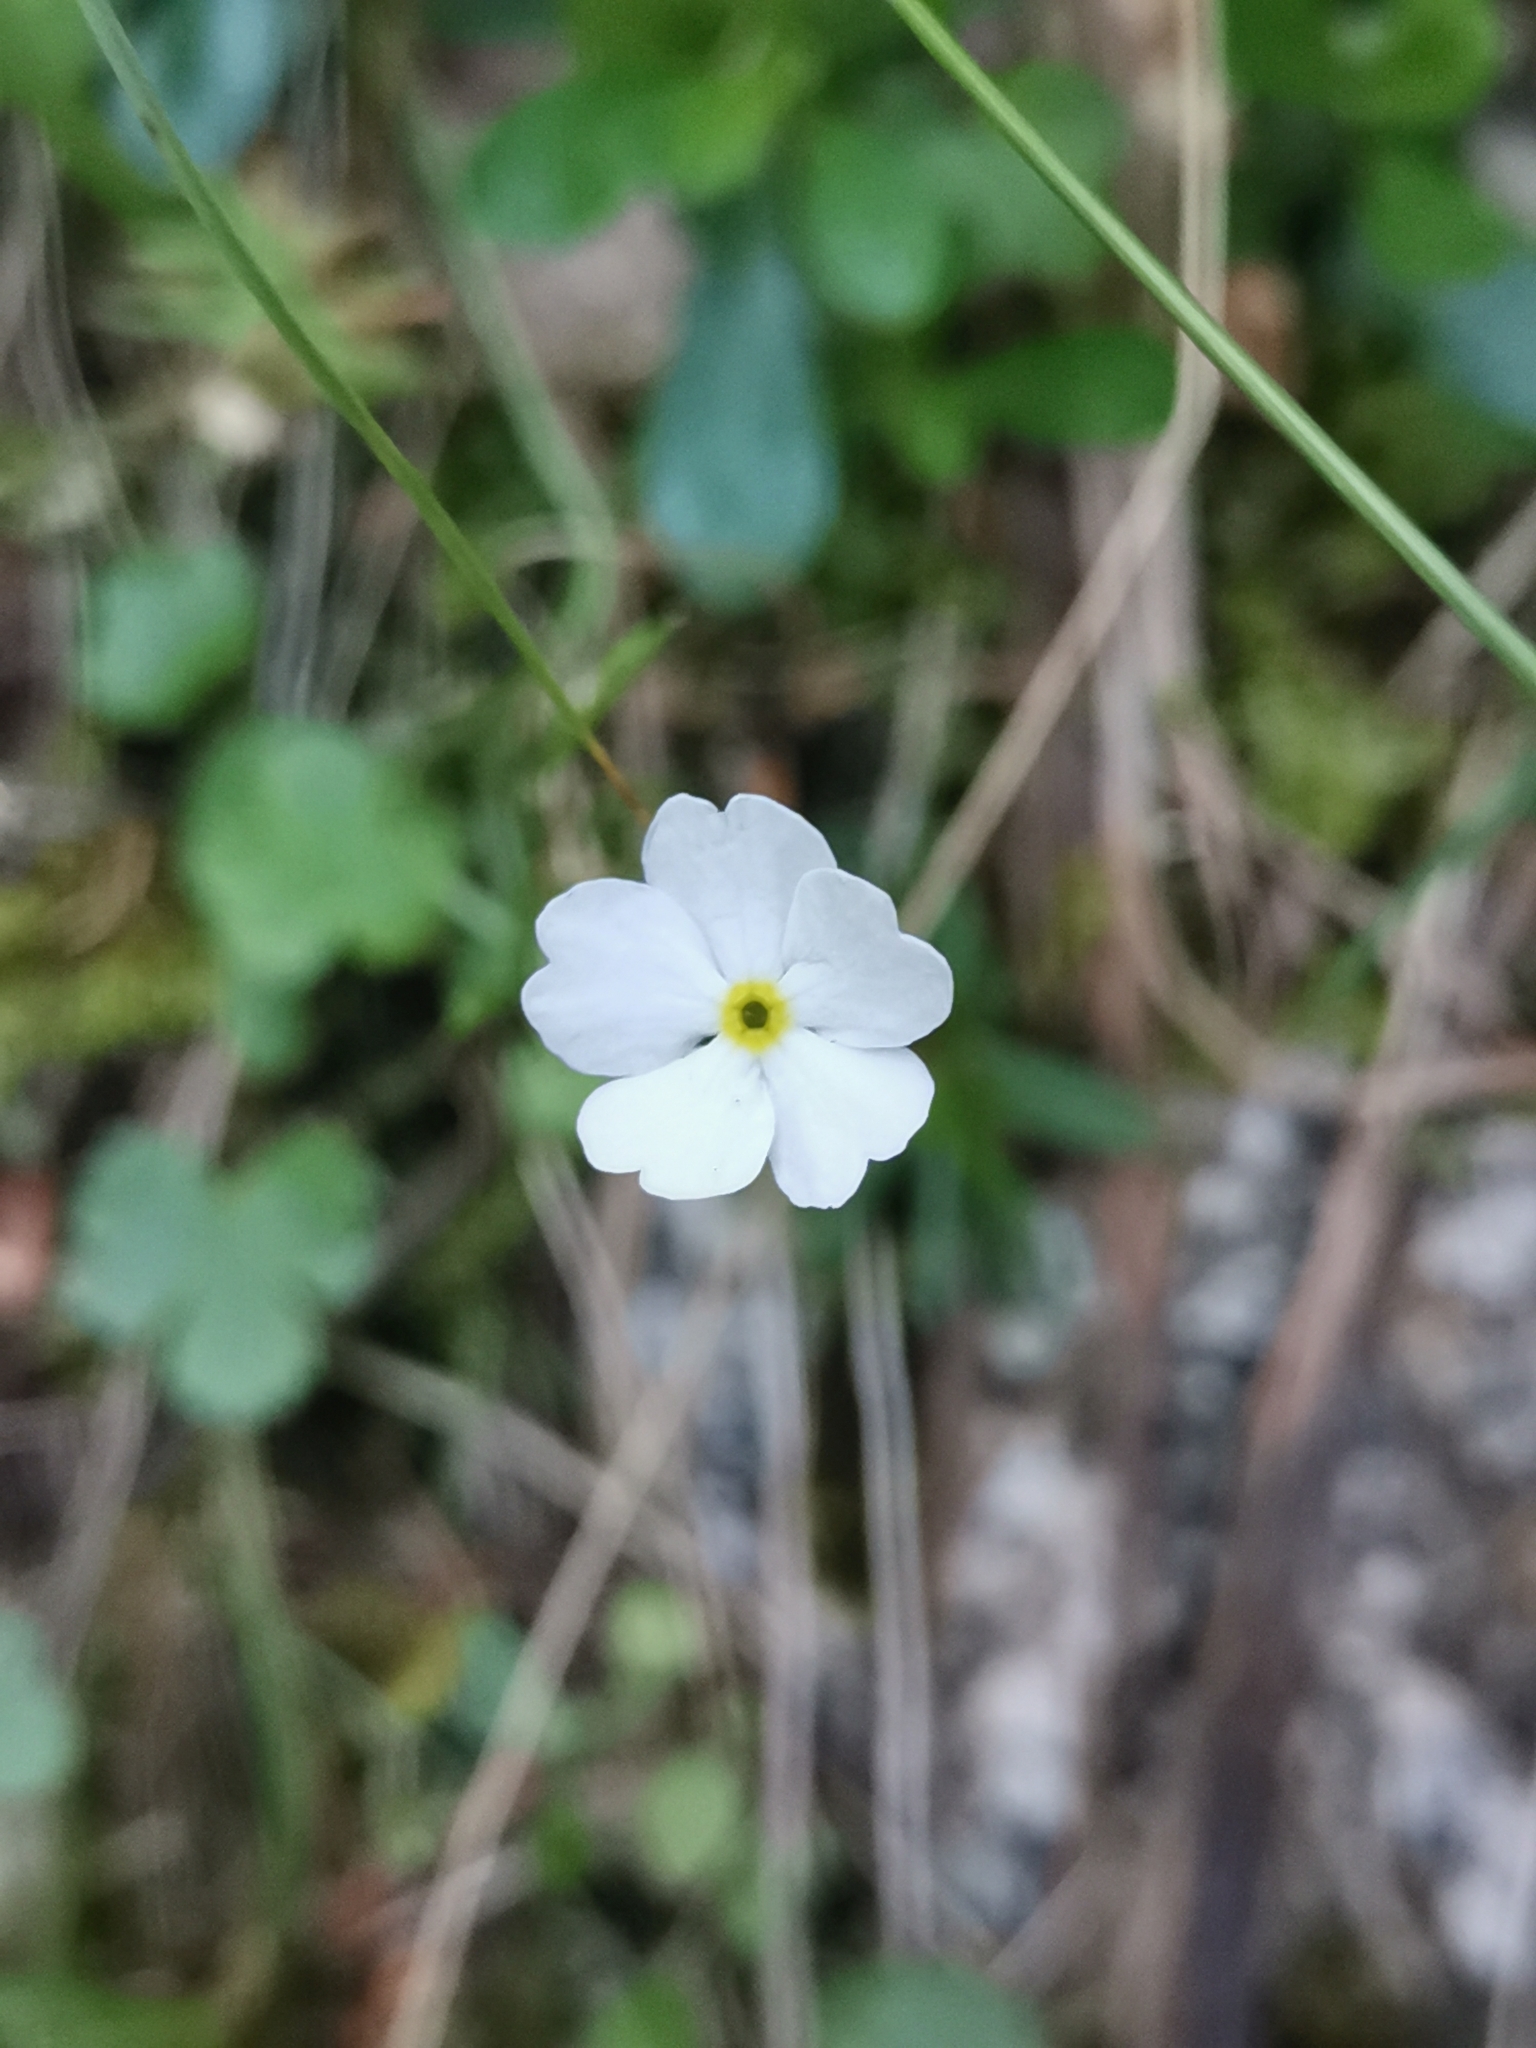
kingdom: Plantae
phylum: Tracheophyta
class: Magnoliopsida
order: Ericales
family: Primulaceae
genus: Androsace
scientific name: Androsace lactea
